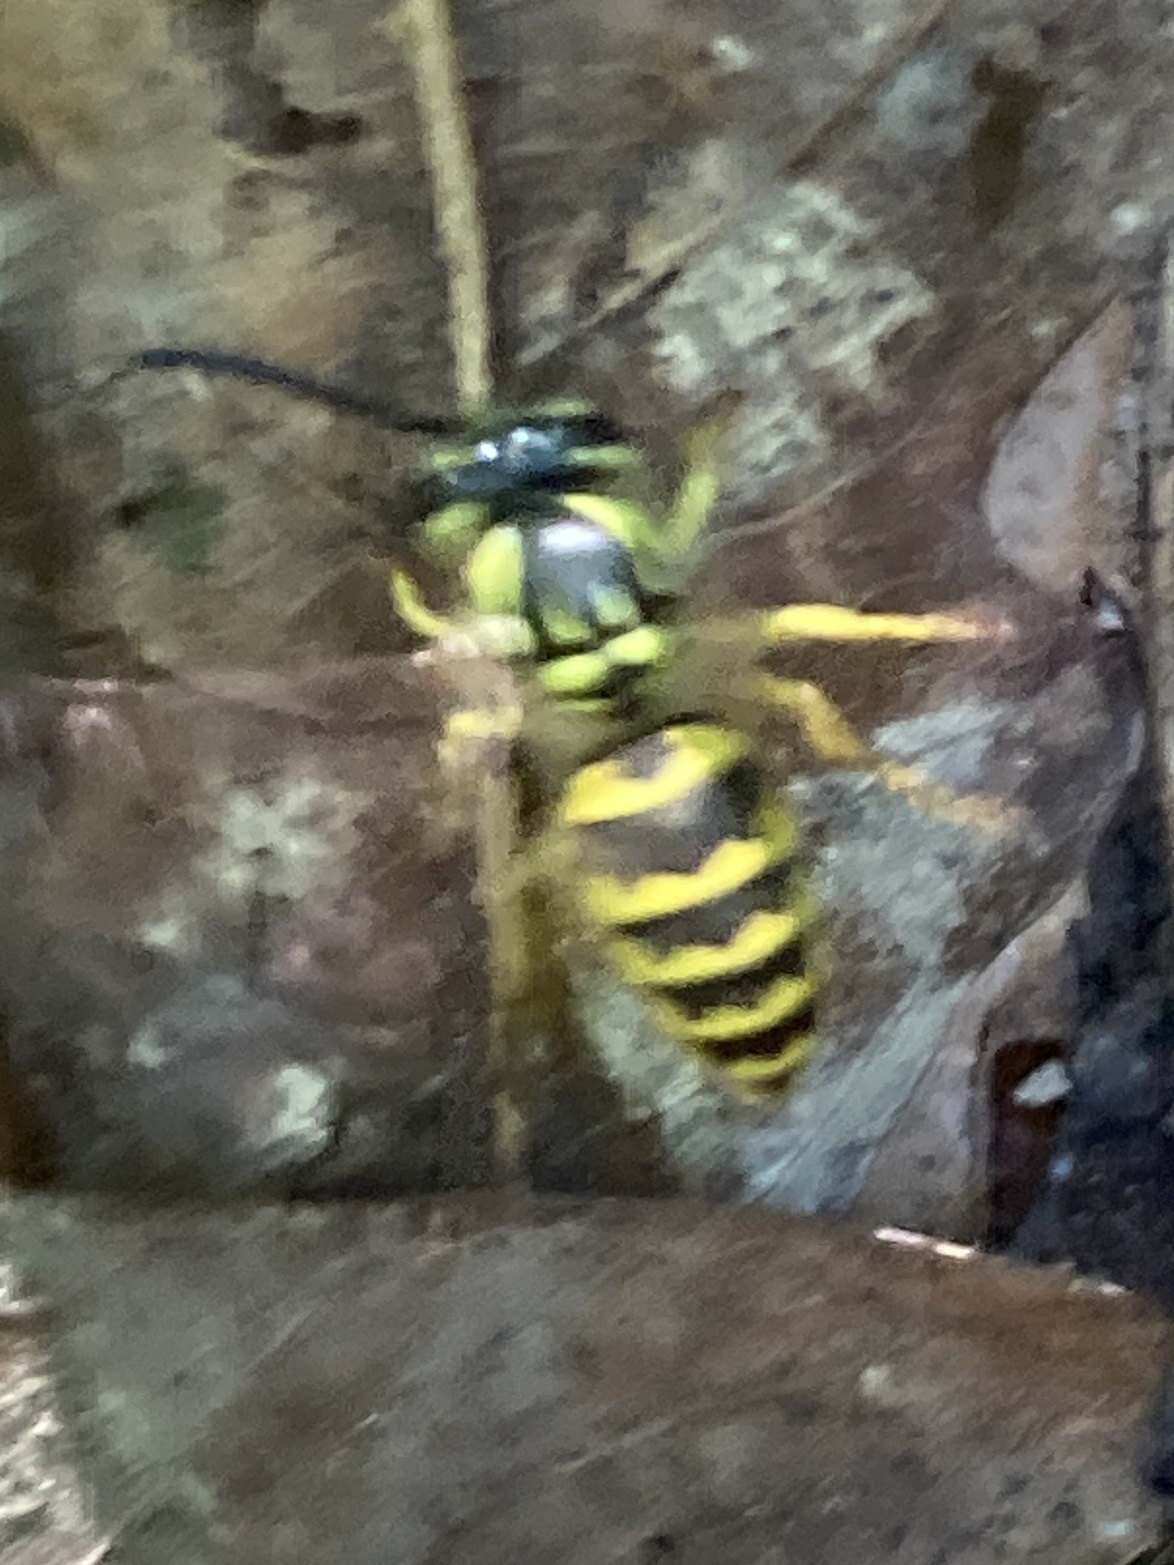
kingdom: Animalia
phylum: Arthropoda
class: Insecta
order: Hymenoptera
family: Vespidae
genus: Vespula
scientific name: Vespula flavopilosa
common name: Downy yellowjacket
